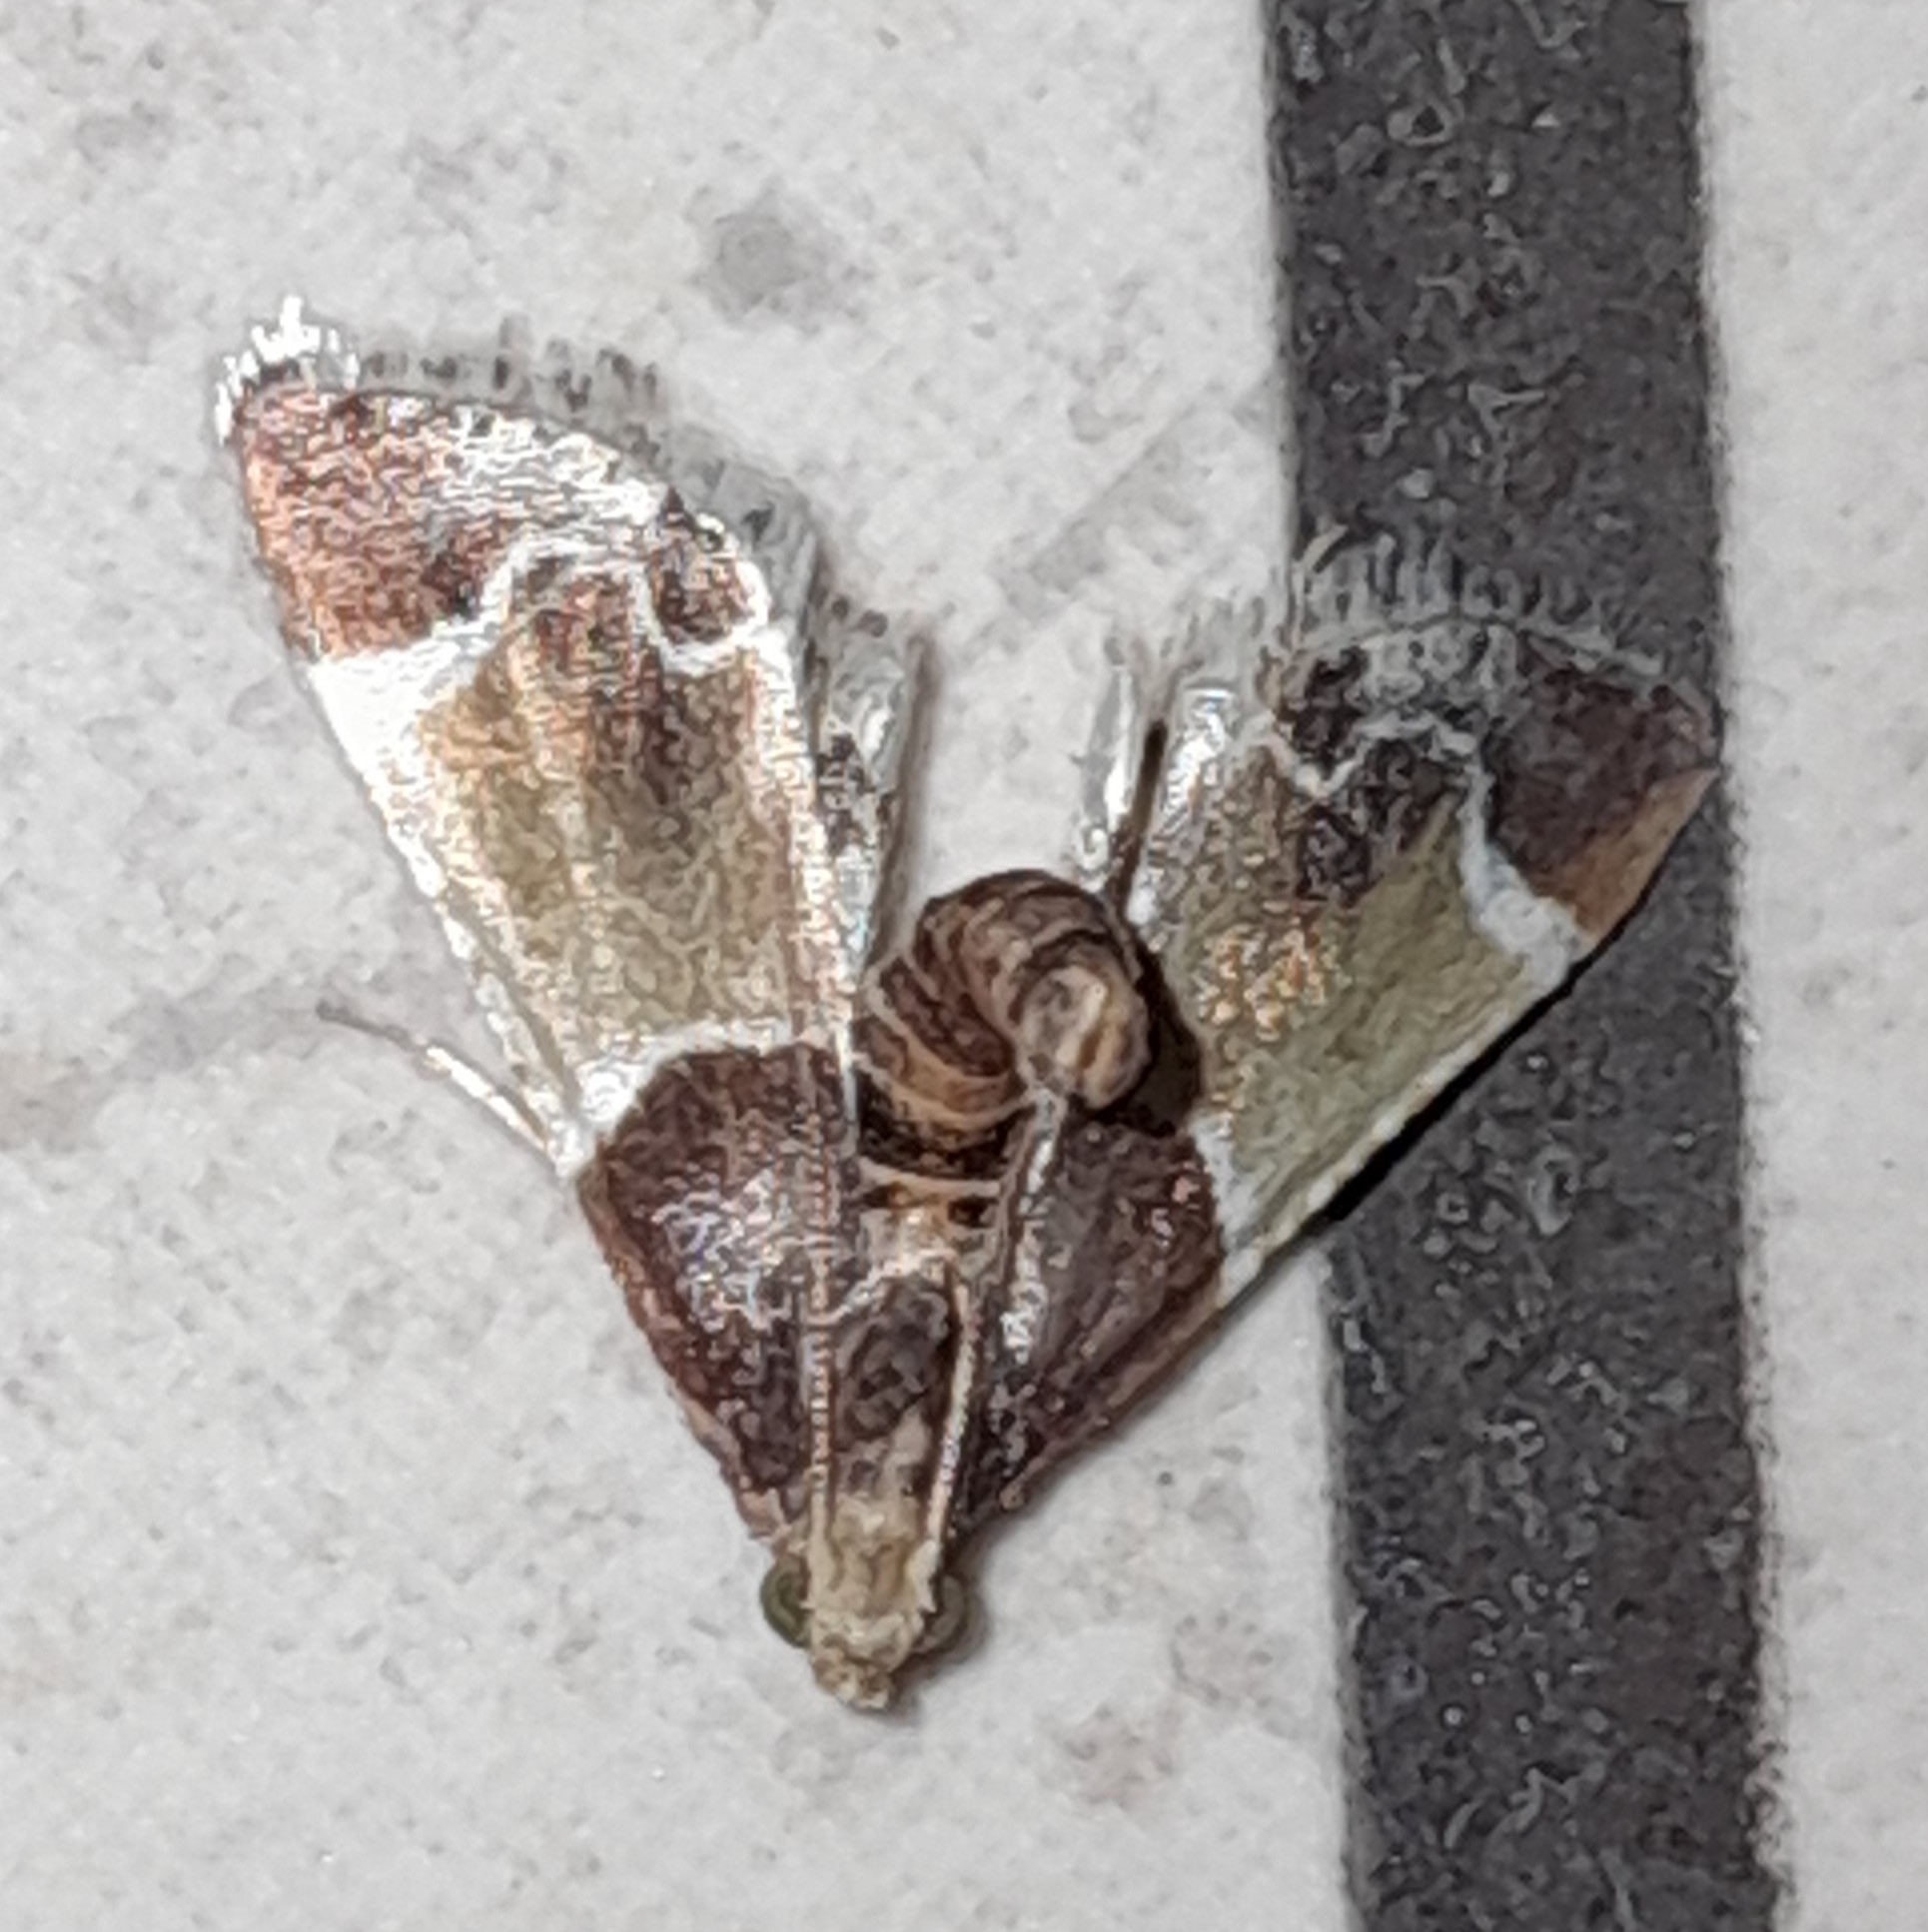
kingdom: Animalia
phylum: Arthropoda
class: Insecta
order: Lepidoptera
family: Pyralidae
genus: Pyralis
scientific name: Pyralis farinalis
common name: Meal moth
